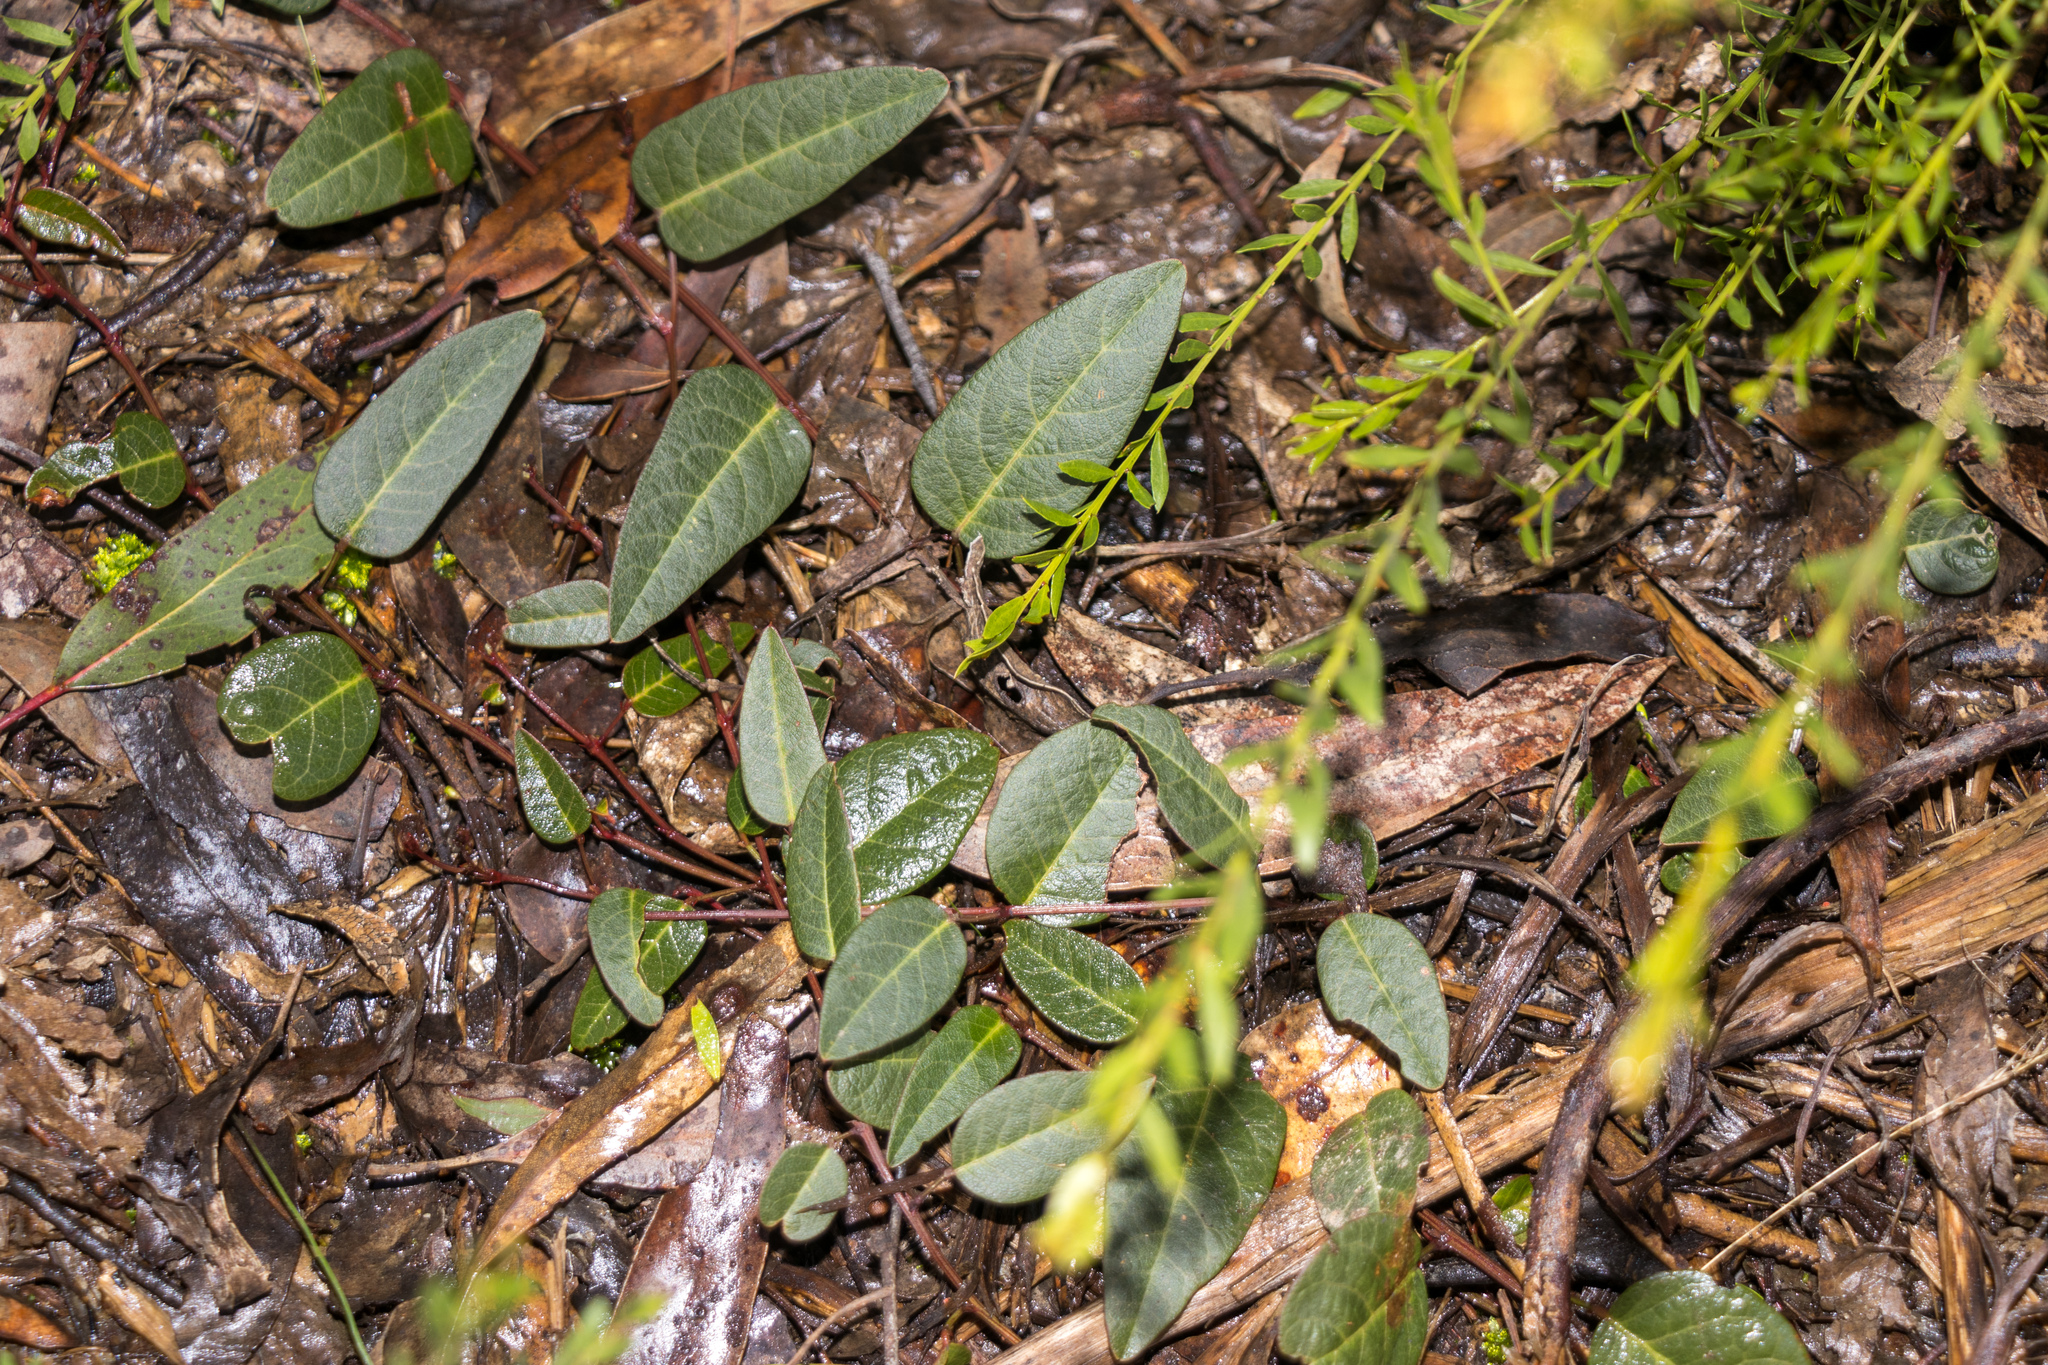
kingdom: Plantae
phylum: Tracheophyta
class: Magnoliopsida
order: Fabales
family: Fabaceae
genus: Hardenbergia
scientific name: Hardenbergia violacea
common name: Coral-pea
